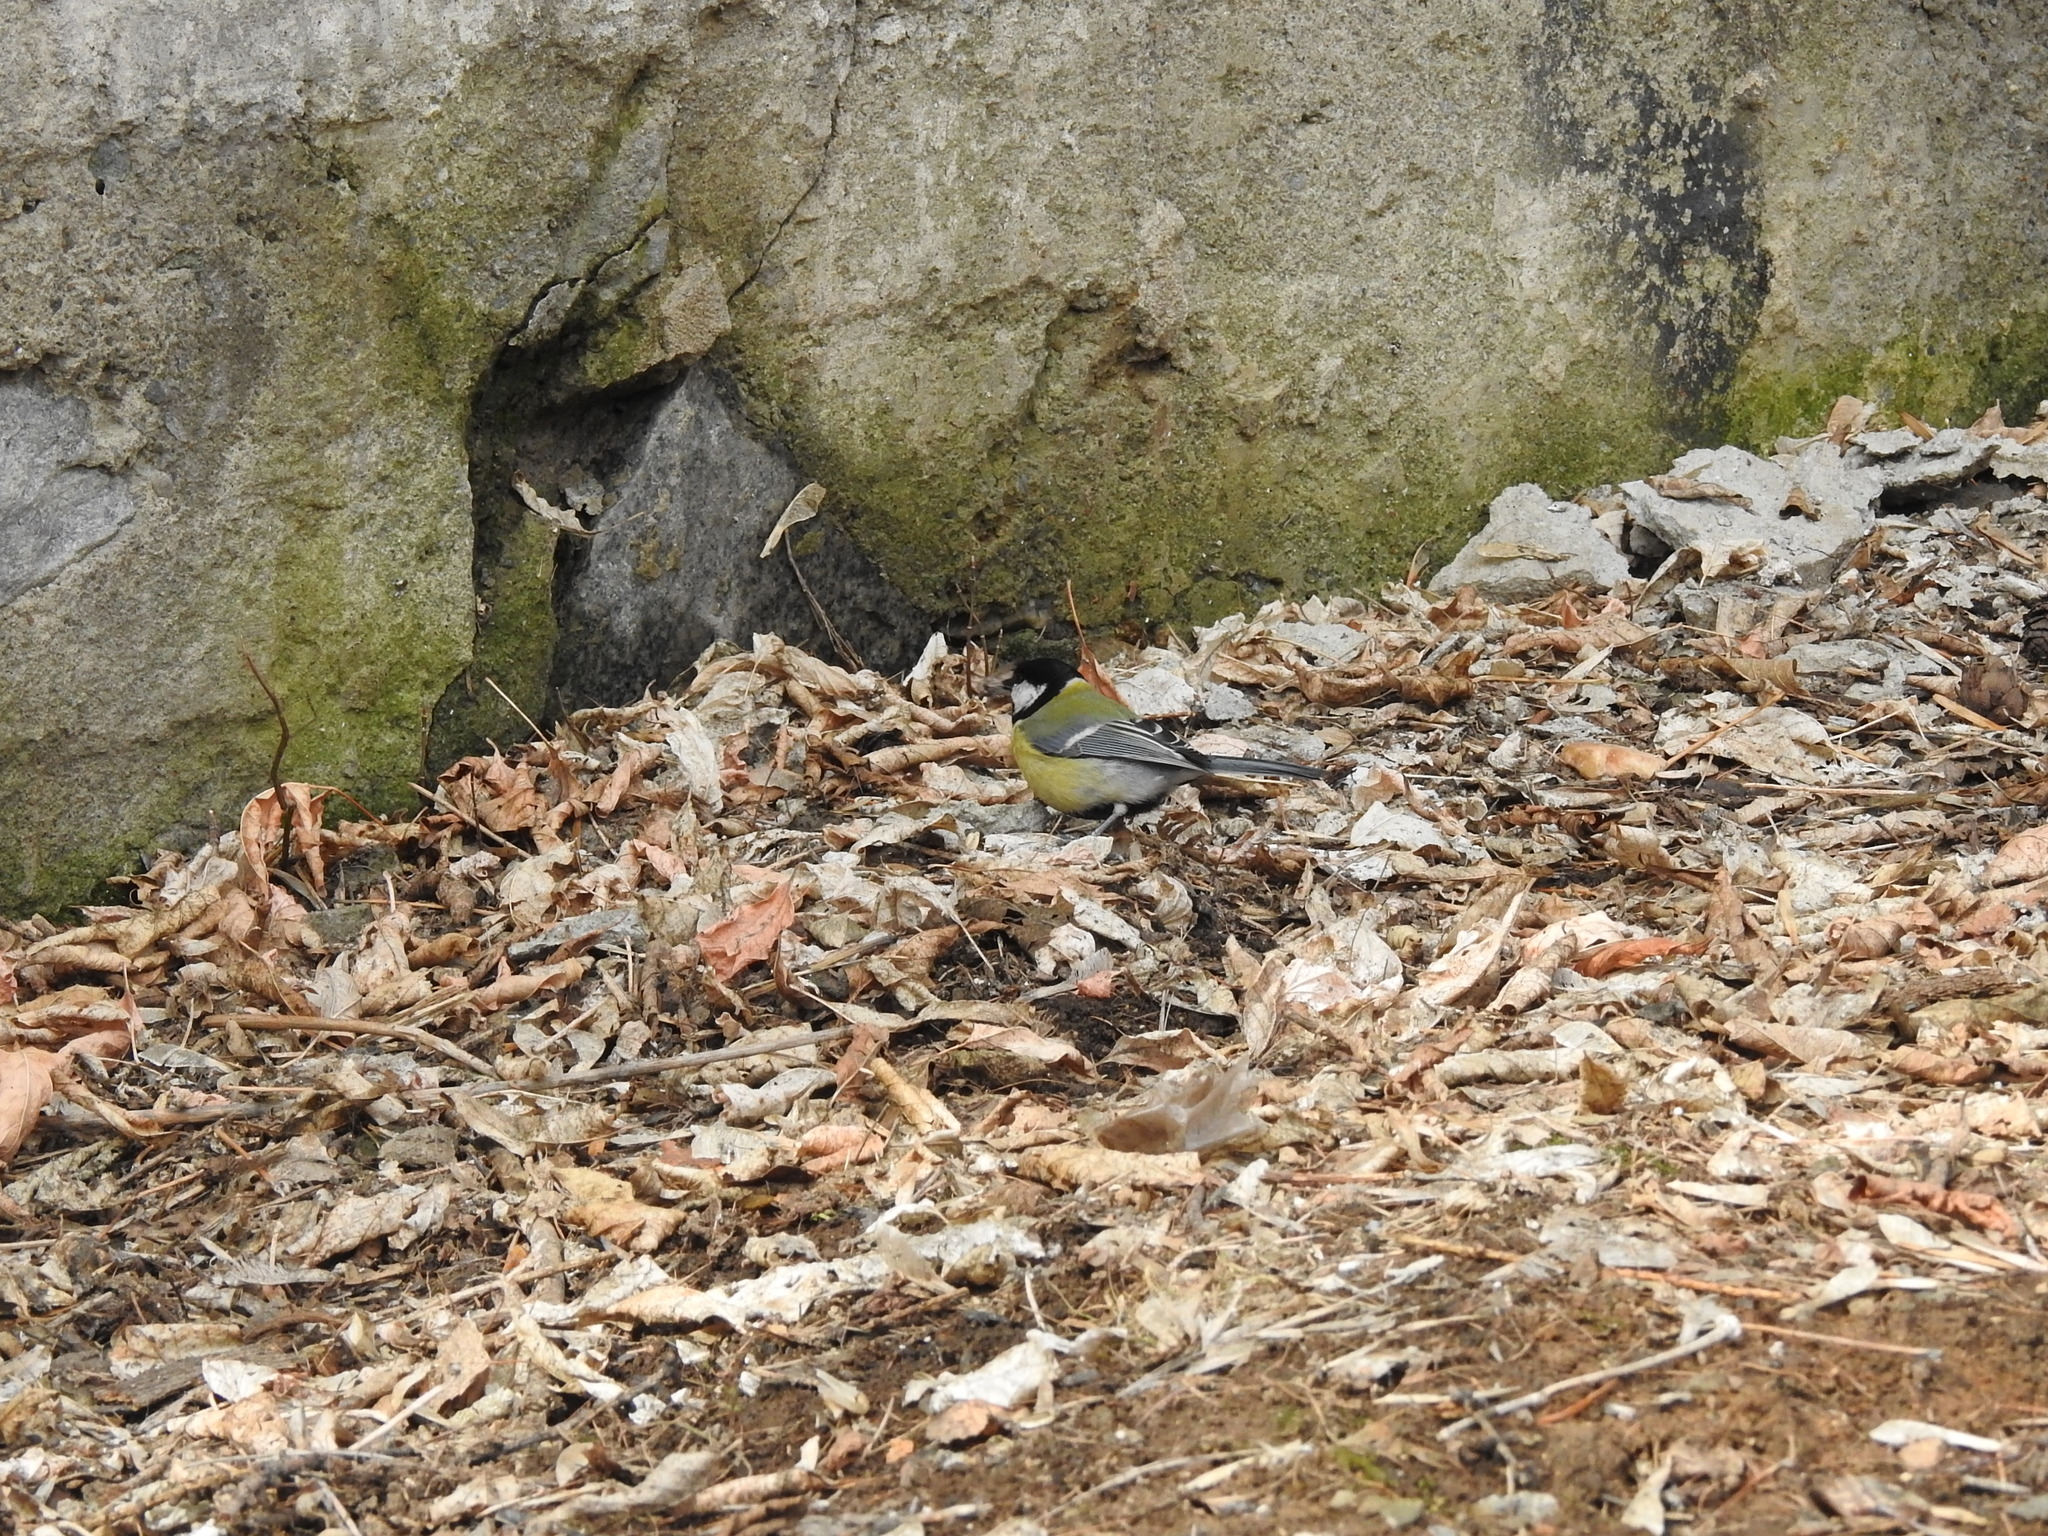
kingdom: Animalia
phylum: Chordata
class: Aves
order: Passeriformes
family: Paridae
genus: Parus
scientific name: Parus major
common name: Great tit
